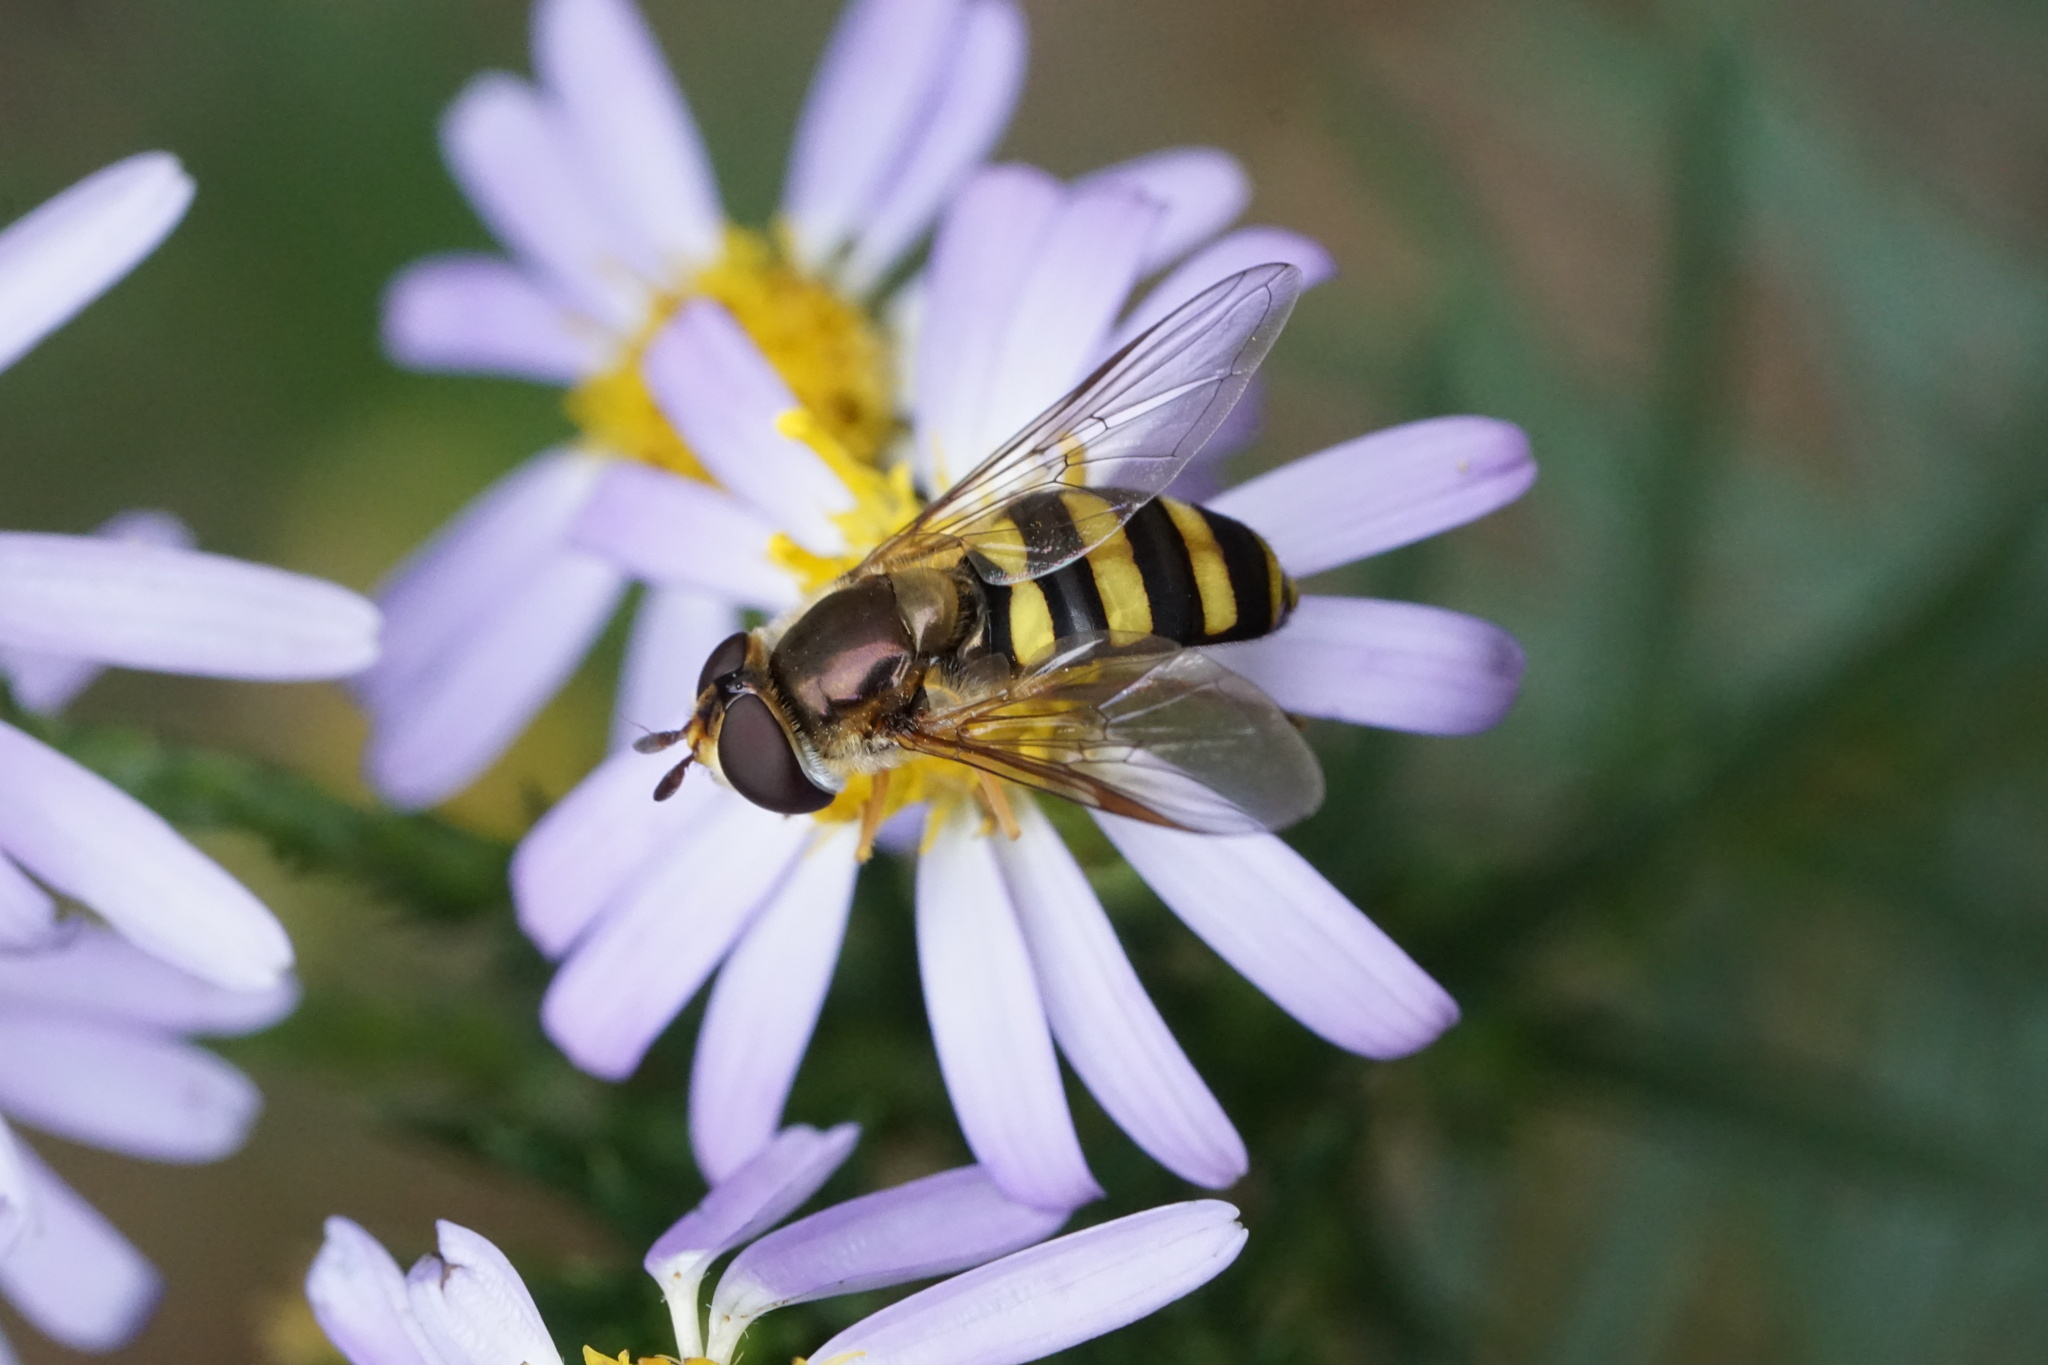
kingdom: Animalia
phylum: Arthropoda
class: Insecta
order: Diptera
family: Syrphidae
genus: Eupeodes
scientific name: Eupeodes
